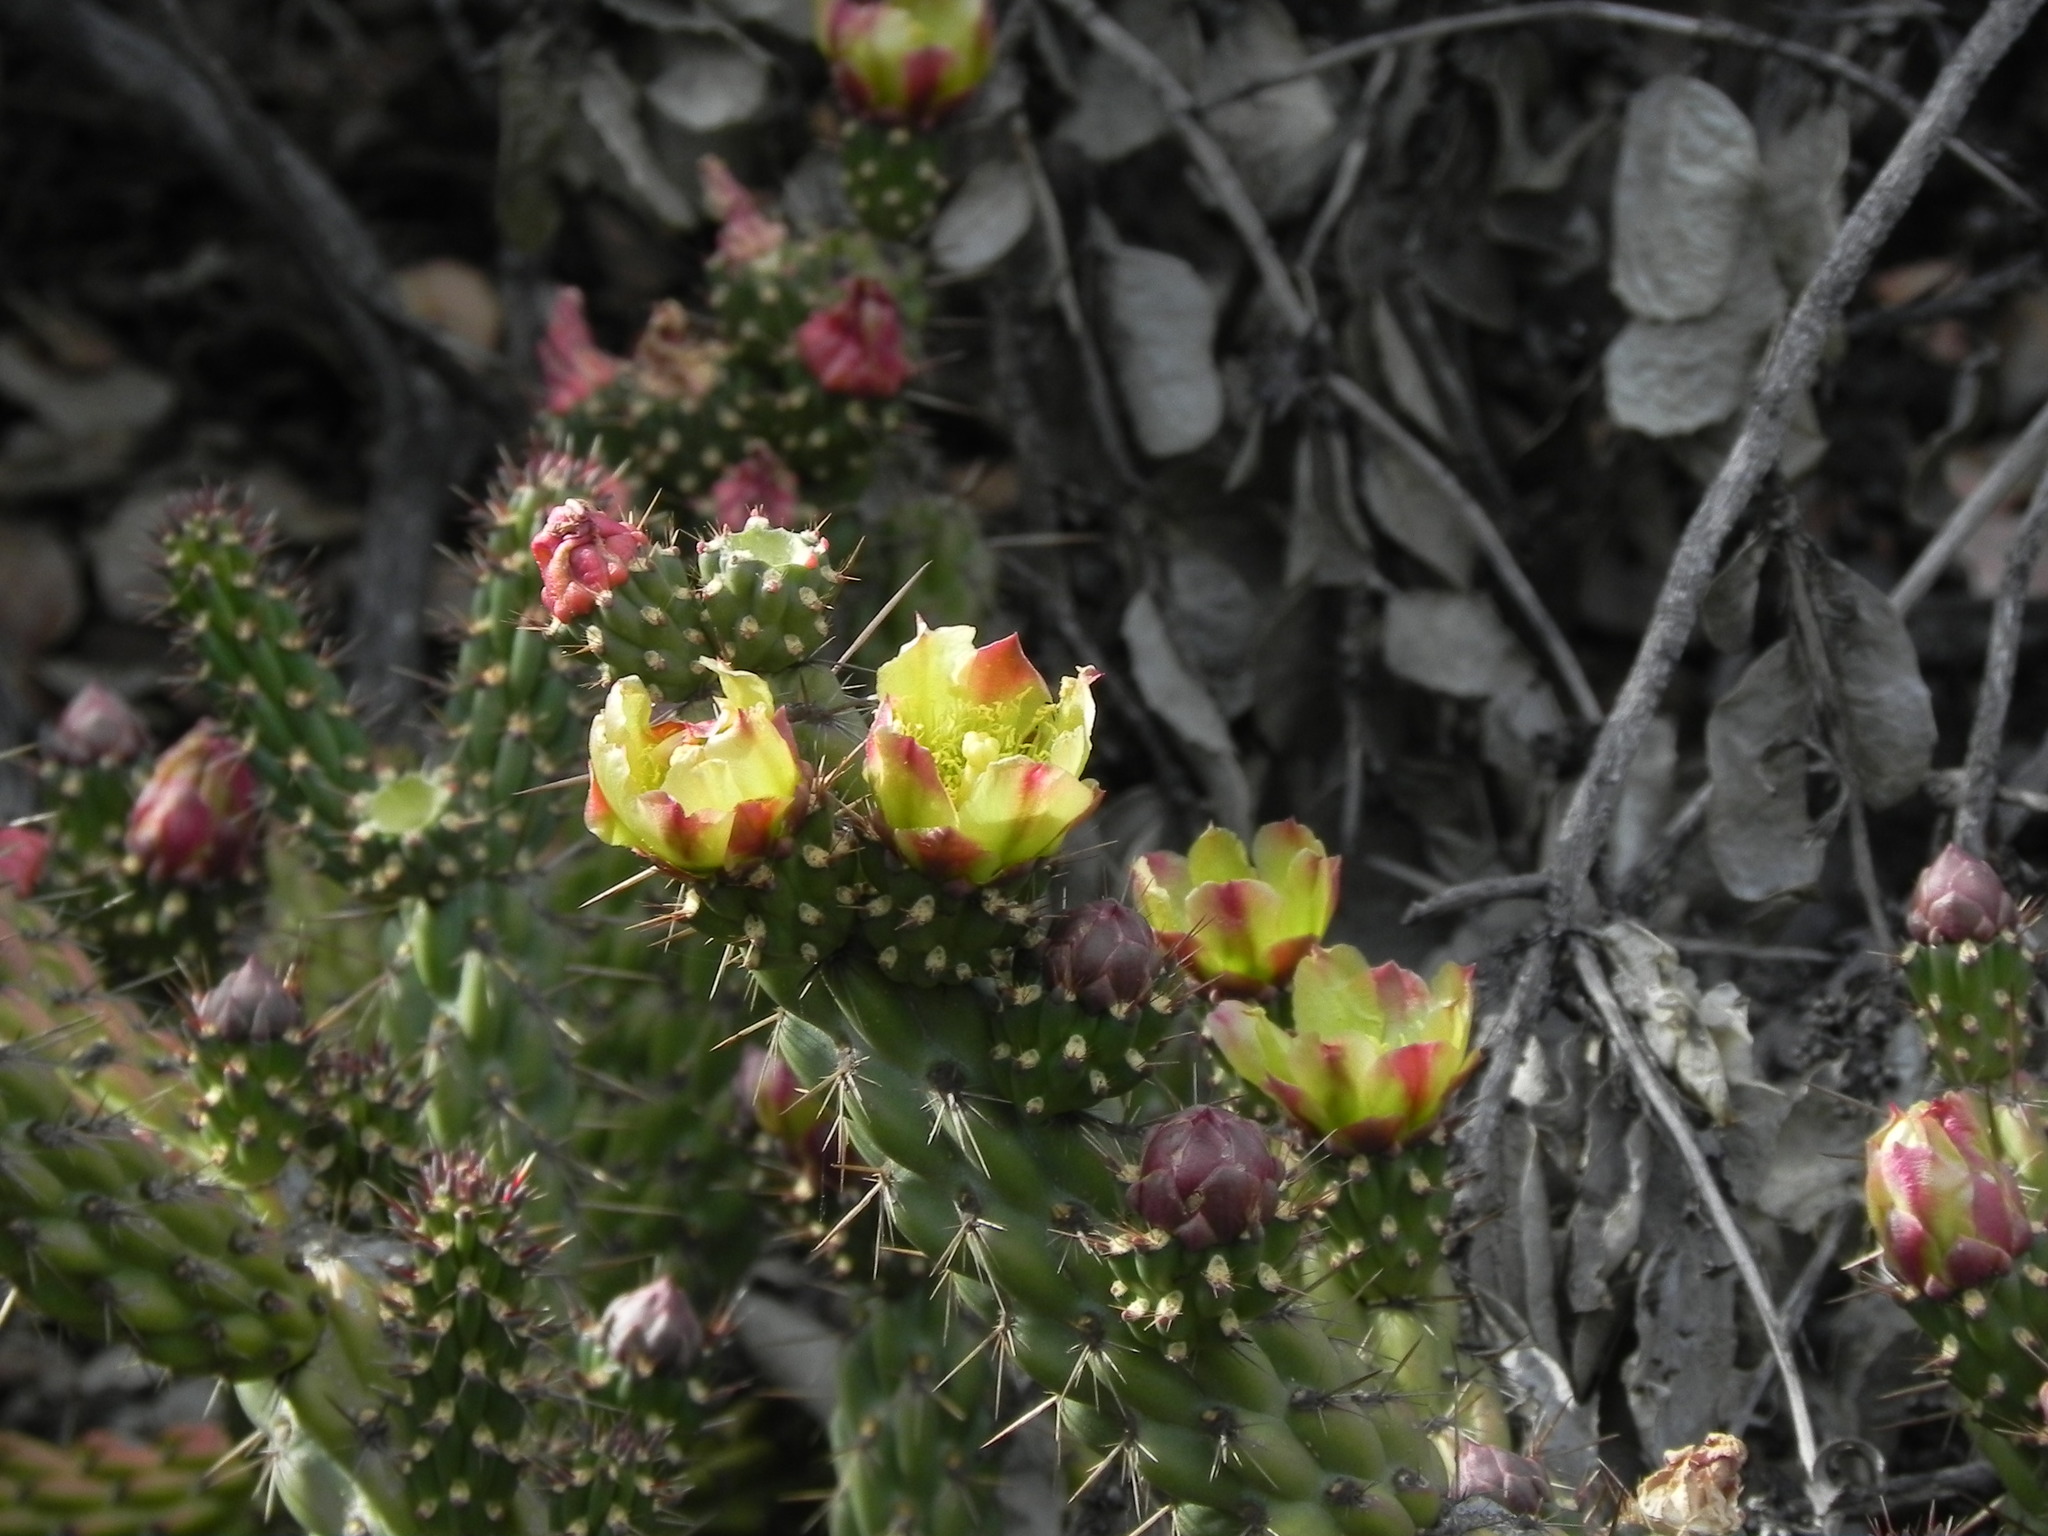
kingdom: Plantae
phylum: Tracheophyta
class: Magnoliopsida
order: Caryophyllales
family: Cactaceae
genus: Cylindropuntia
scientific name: Cylindropuntia californica
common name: Snake cholla
